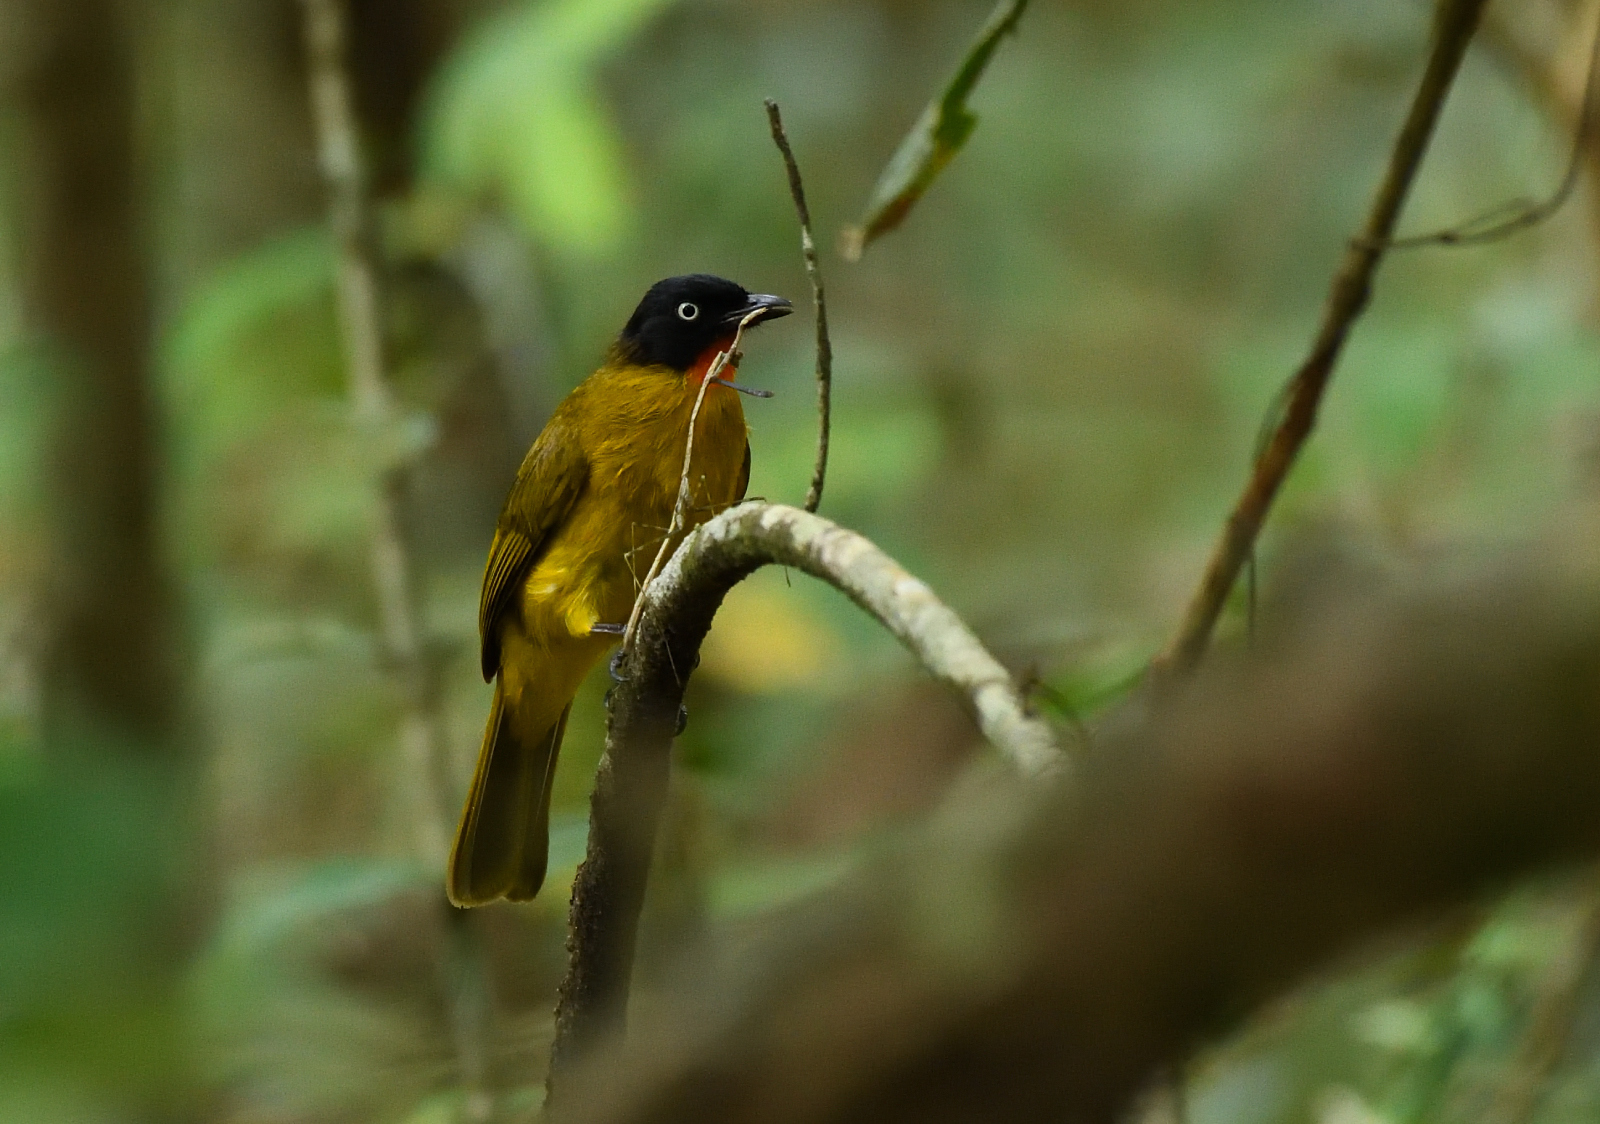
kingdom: Animalia
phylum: Chordata
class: Aves
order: Passeriformes
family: Pycnonotidae
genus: Pycnonotus
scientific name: Pycnonotus gularis
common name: Flame-throated bulbul
